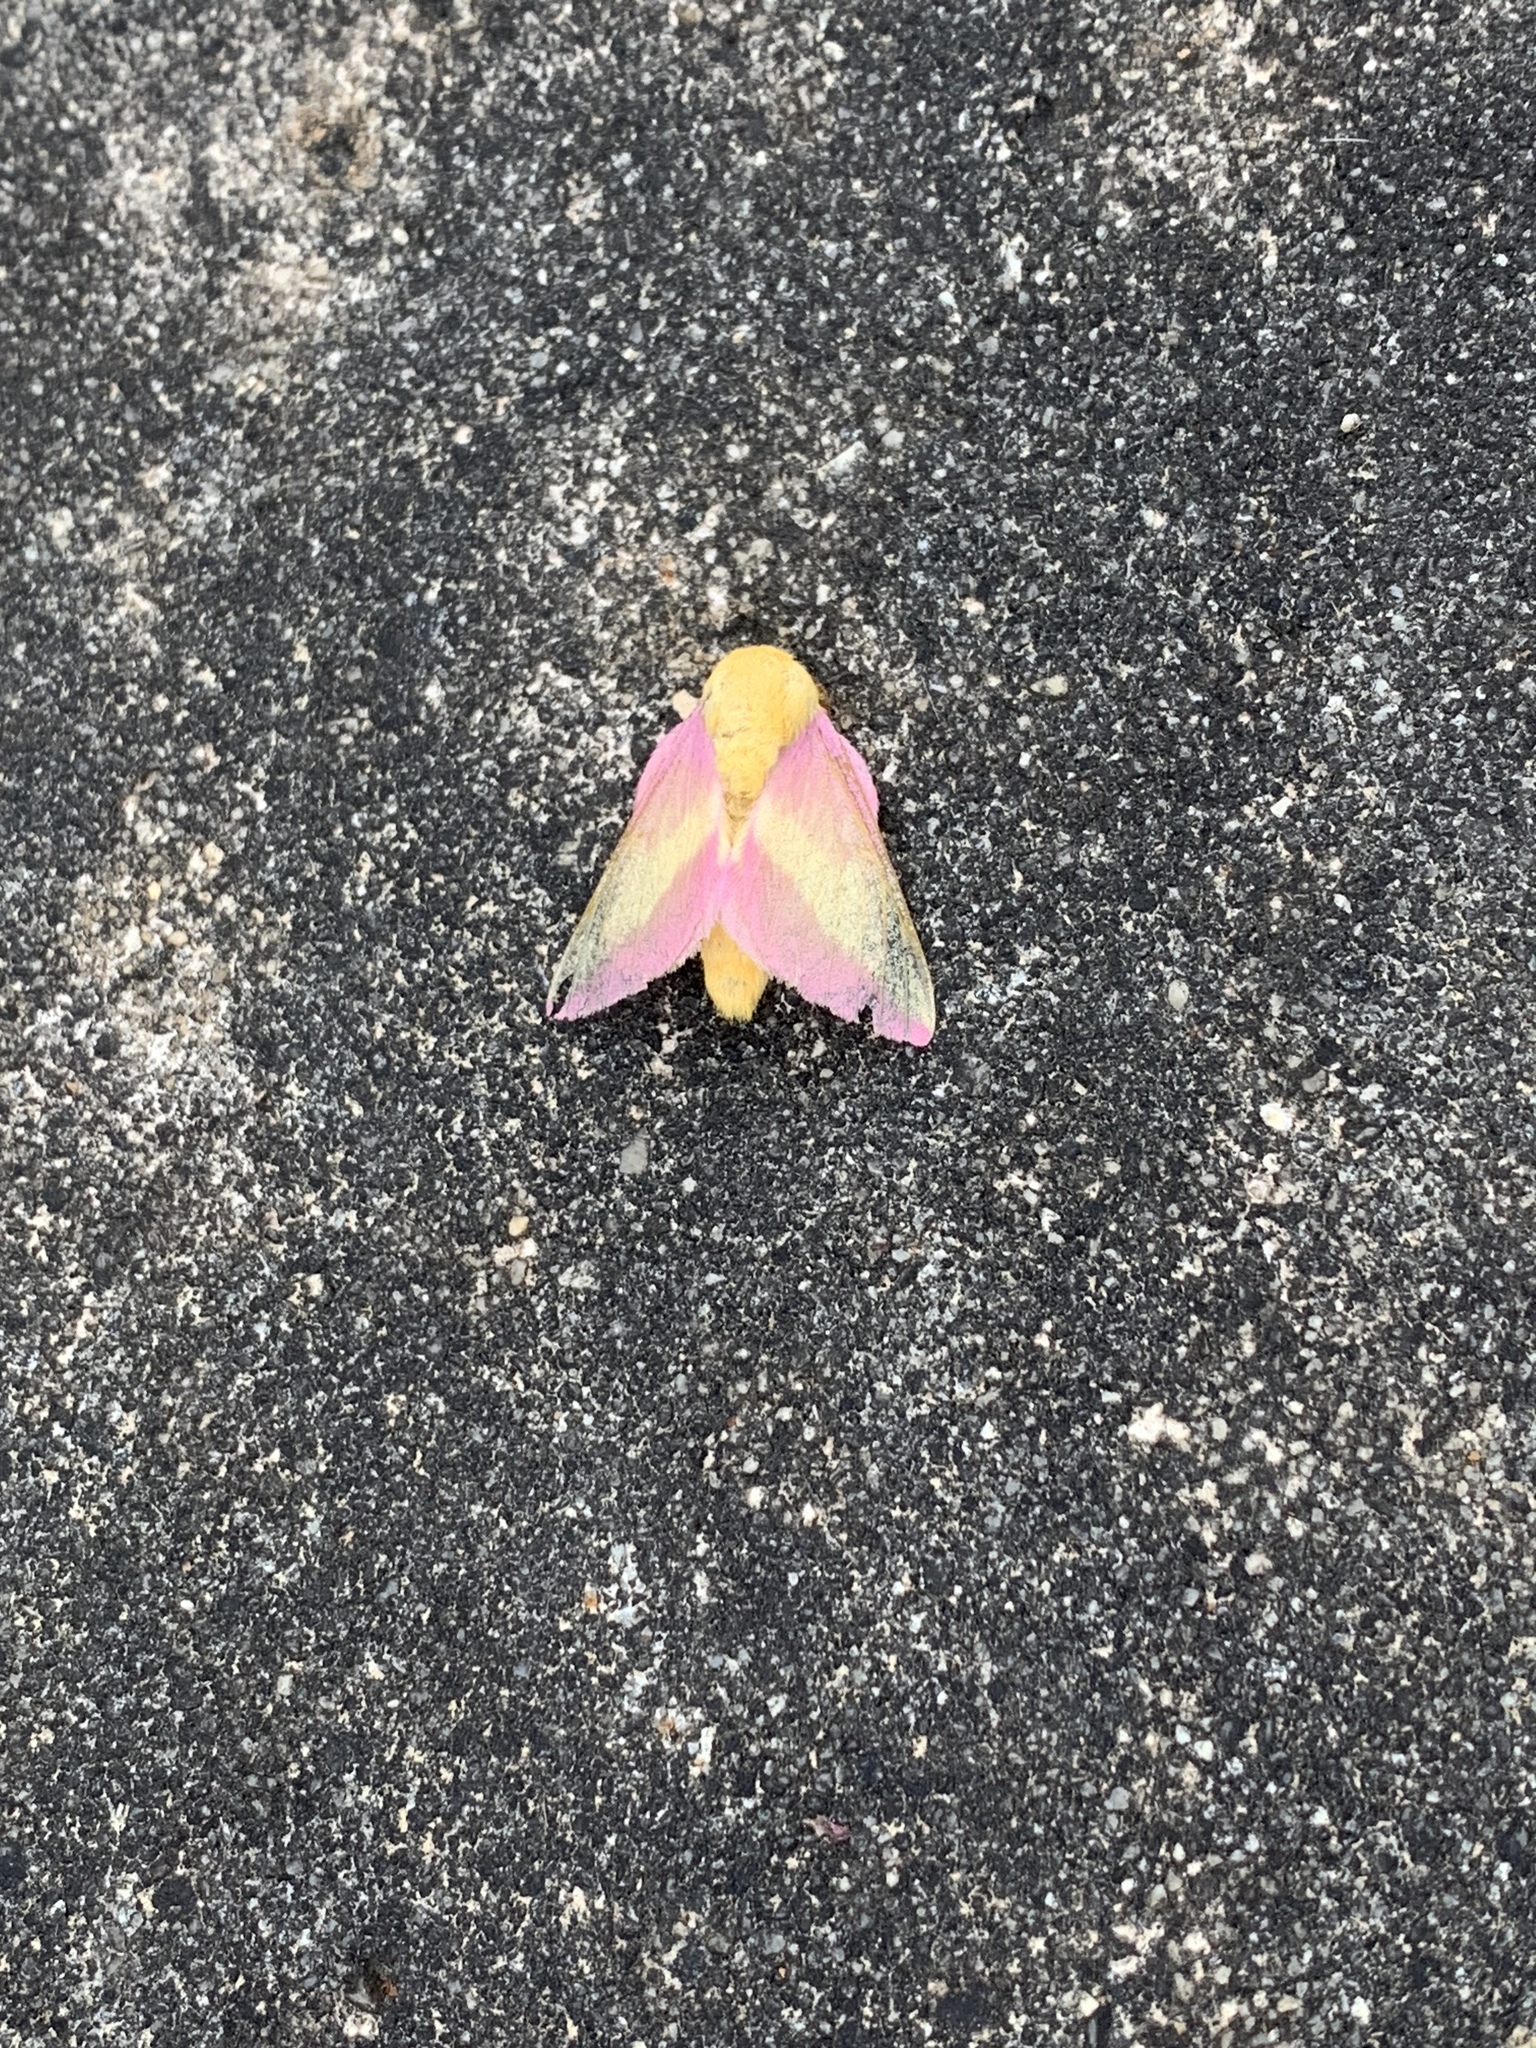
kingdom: Animalia
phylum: Arthropoda
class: Insecta
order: Lepidoptera
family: Saturniidae
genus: Dryocampa
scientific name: Dryocampa rubicunda
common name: Rosy maple moth
